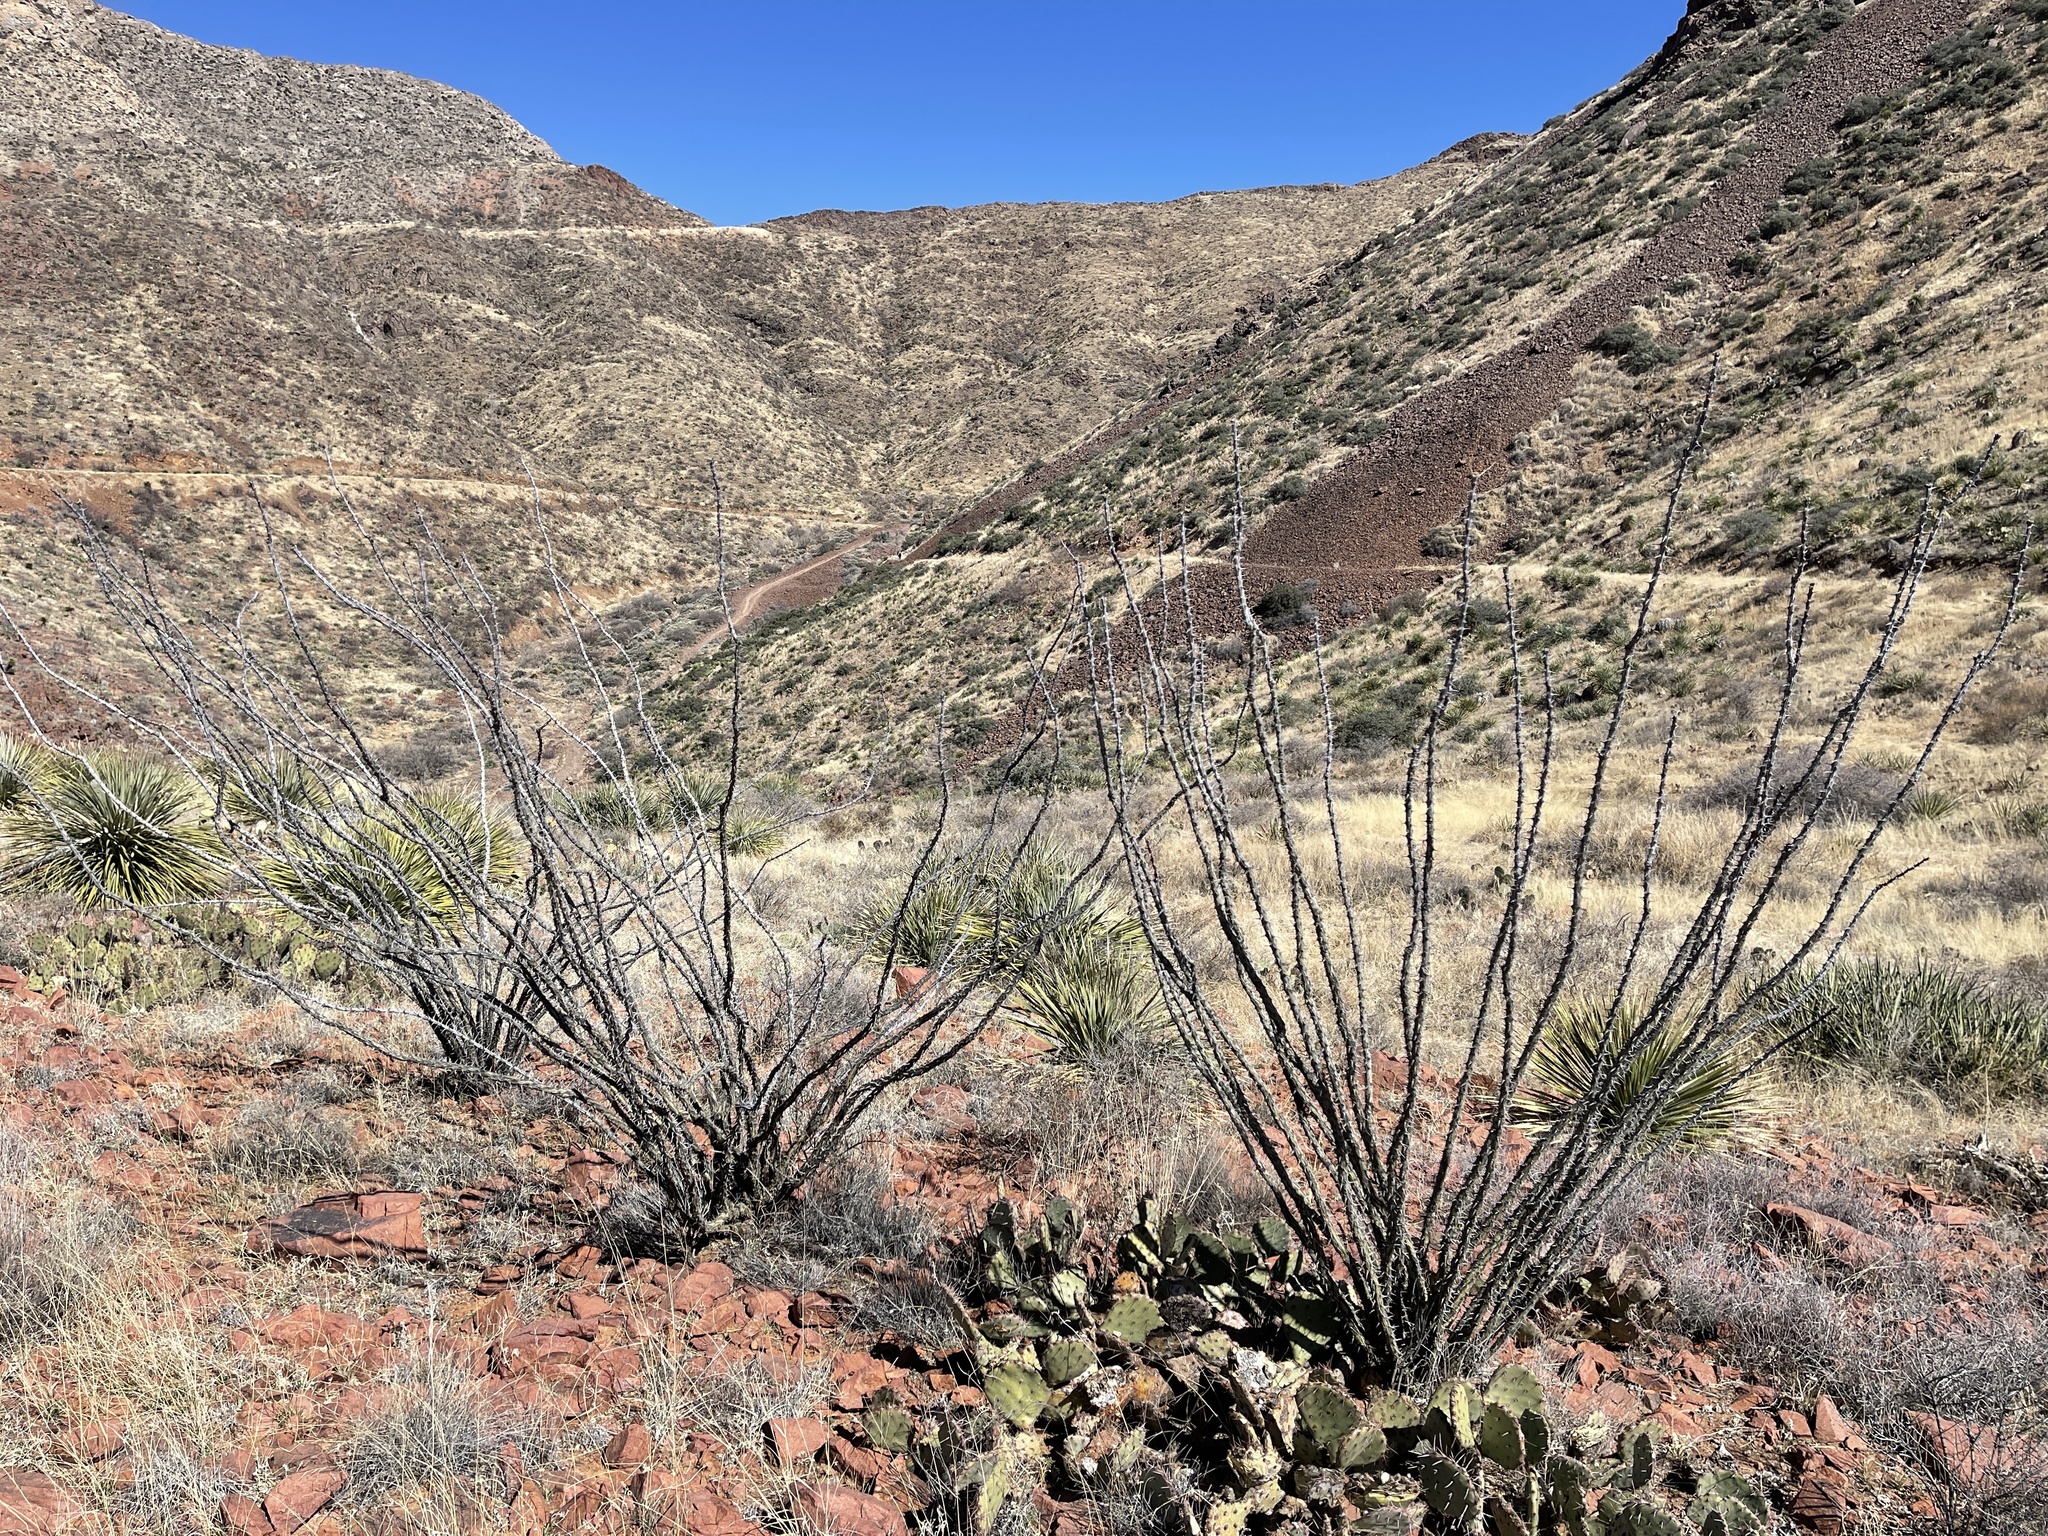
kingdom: Plantae
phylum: Tracheophyta
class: Magnoliopsida
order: Ericales
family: Fouquieriaceae
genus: Fouquieria
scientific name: Fouquieria splendens
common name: Vine-cactus
